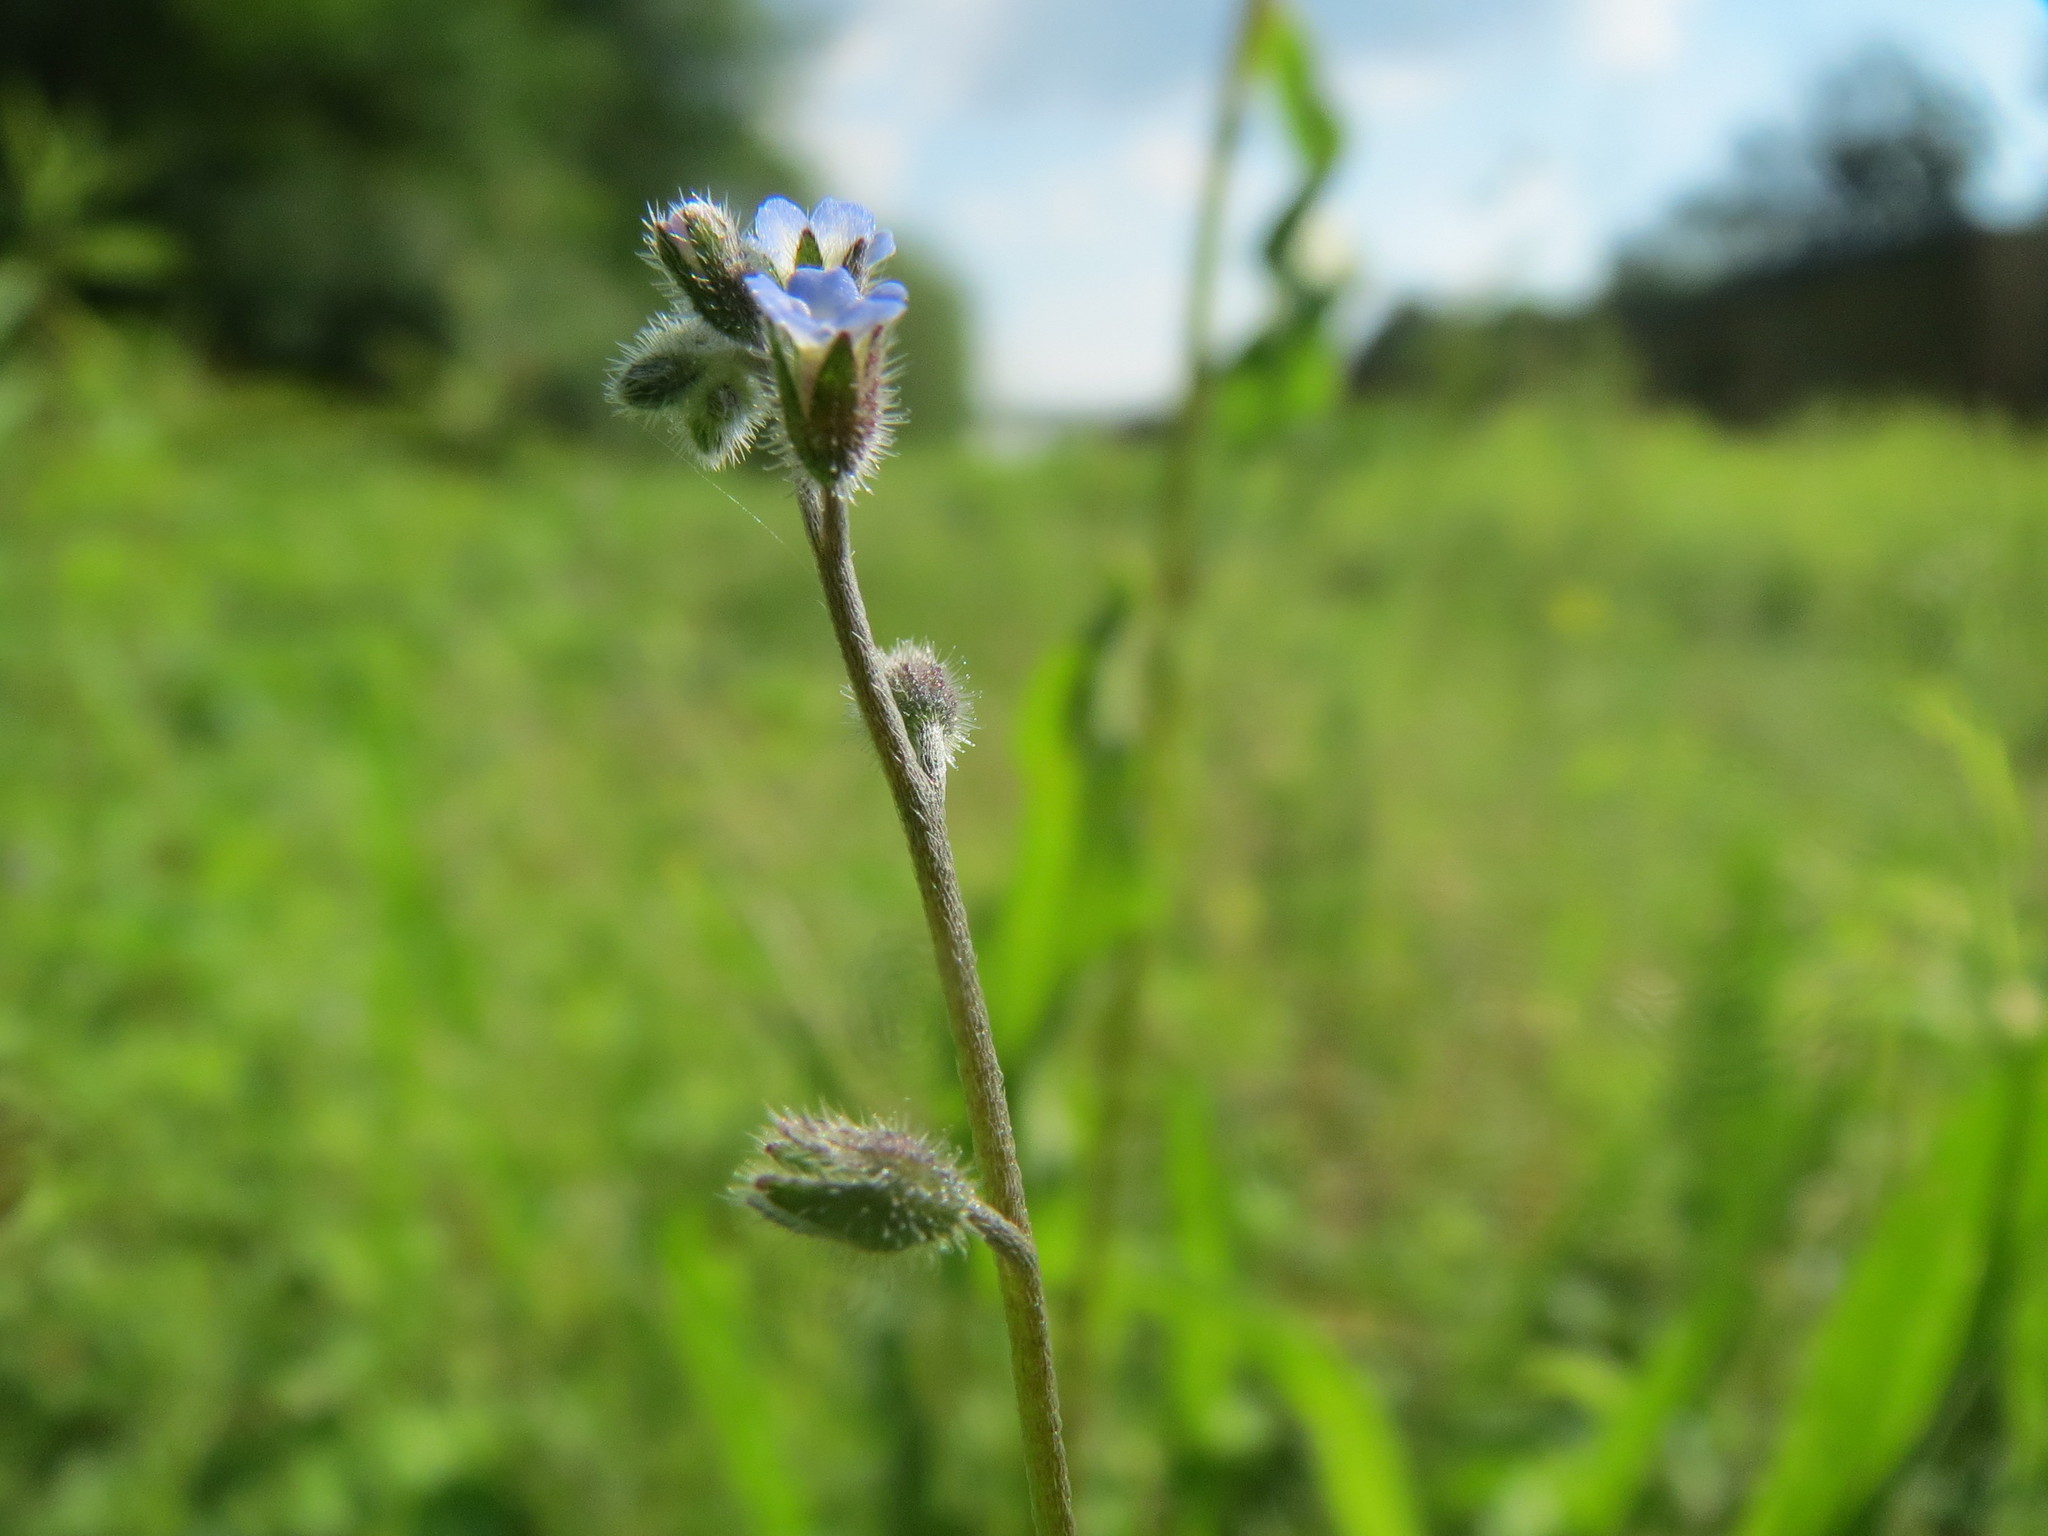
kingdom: Plantae
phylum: Tracheophyta
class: Magnoliopsida
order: Boraginales
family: Boraginaceae
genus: Myosotis
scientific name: Myosotis ramosissima
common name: Early forget-me-not
